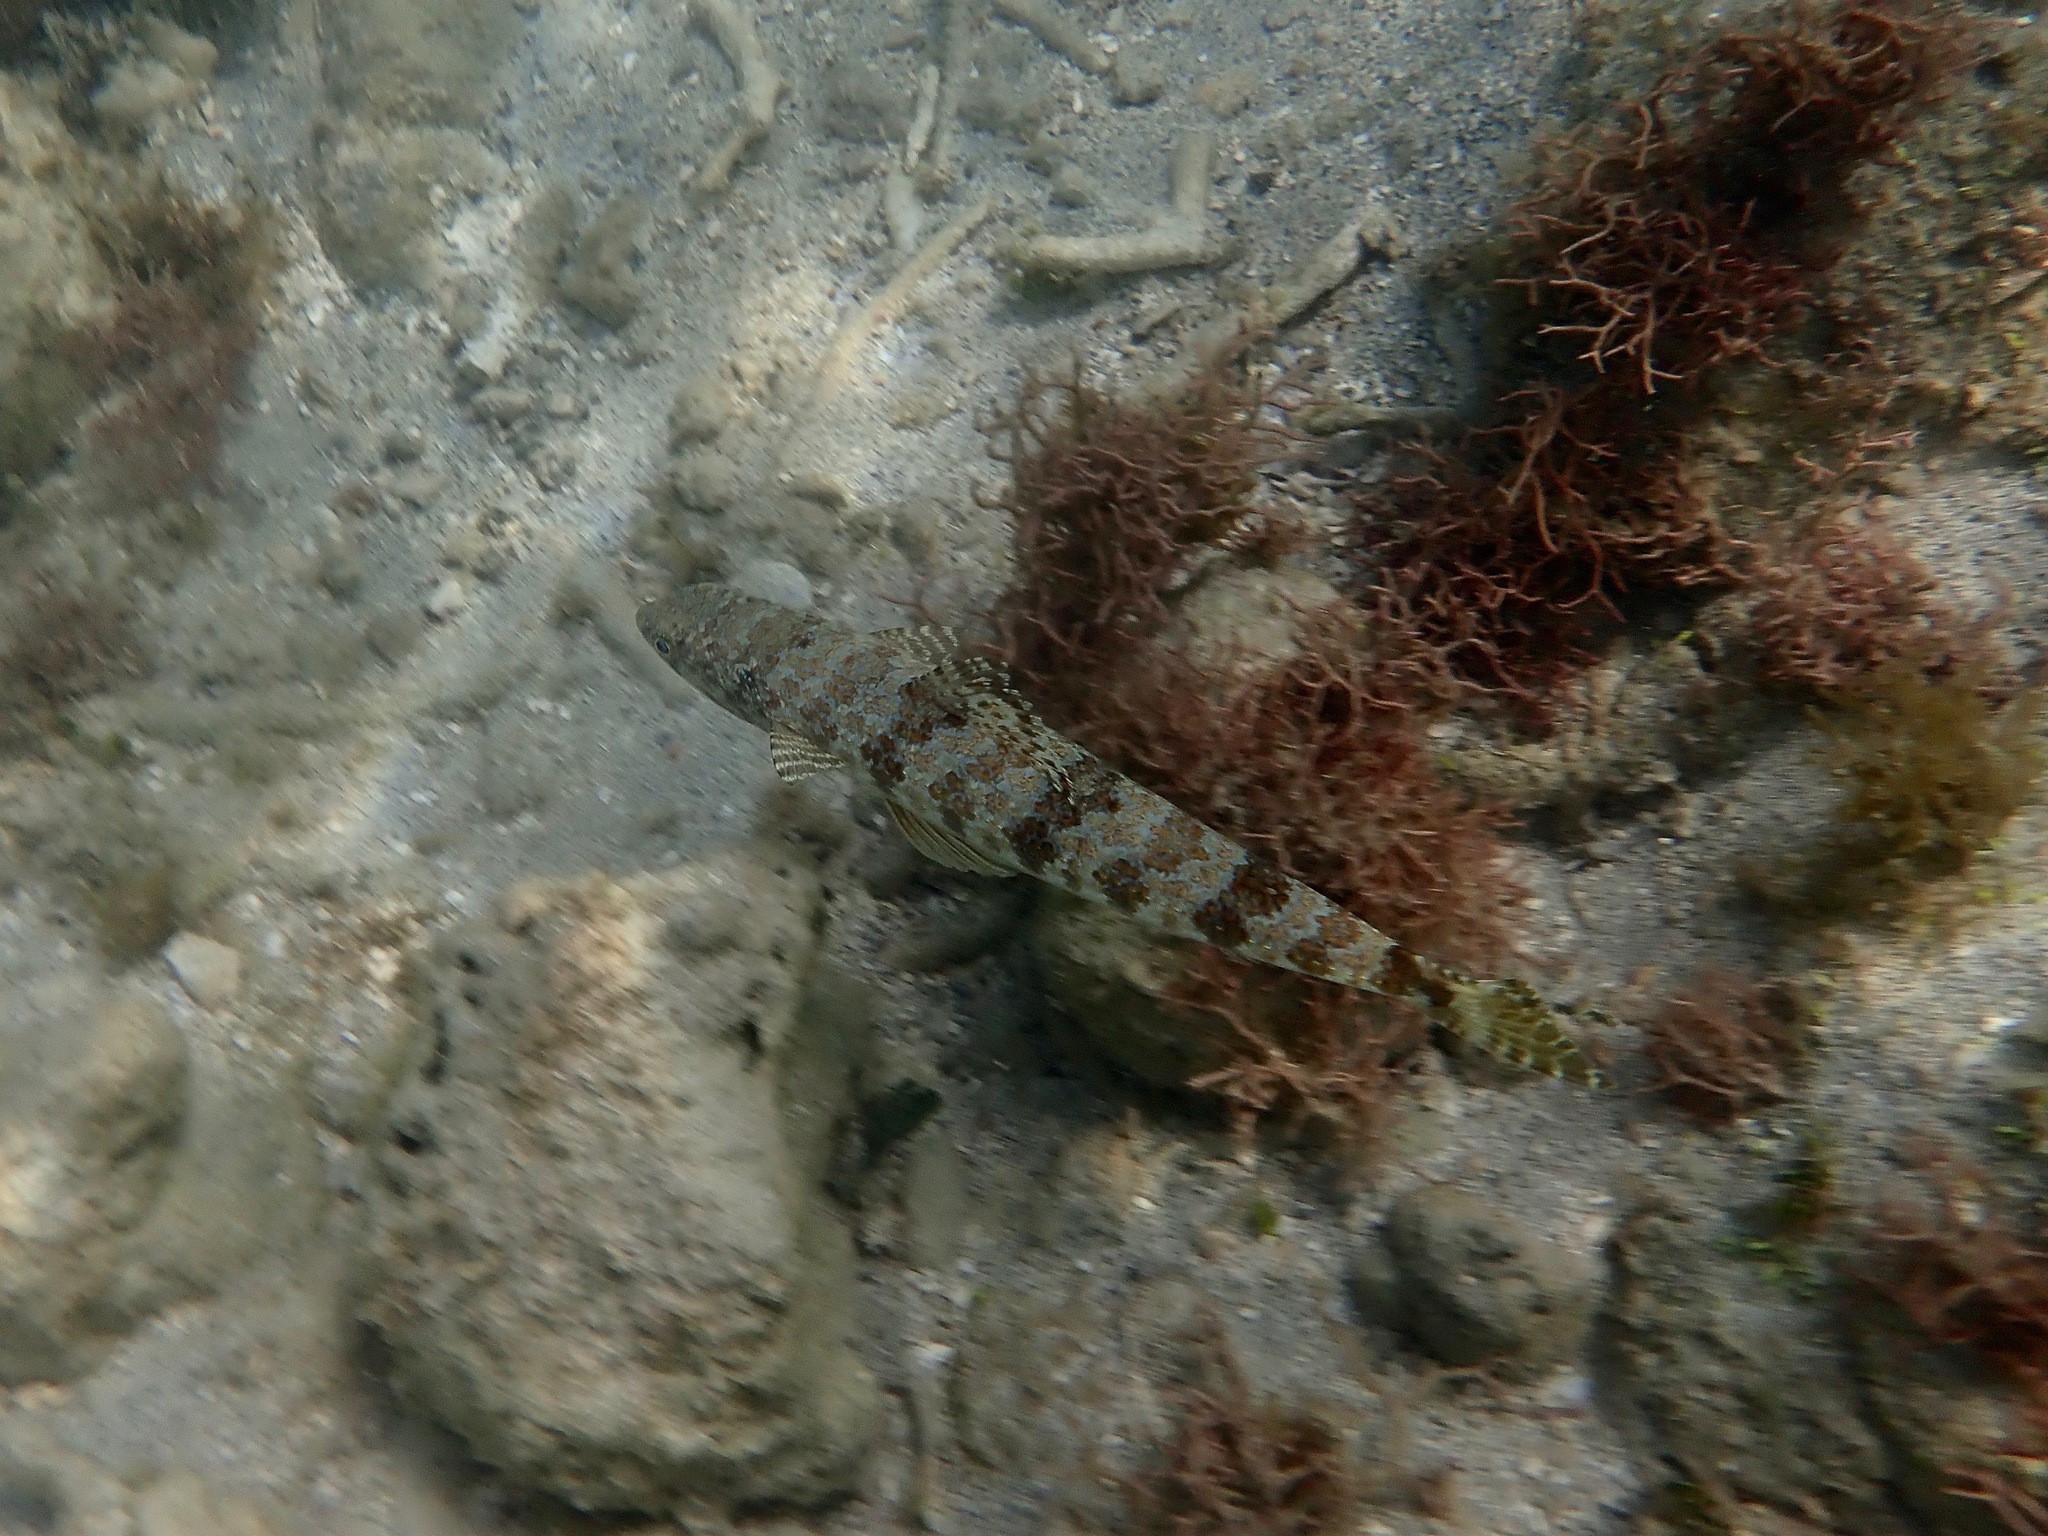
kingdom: Animalia
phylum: Chordata
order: Aulopiformes
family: Synodontidae
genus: Synodus
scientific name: Synodus intermedius
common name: Sand diver
